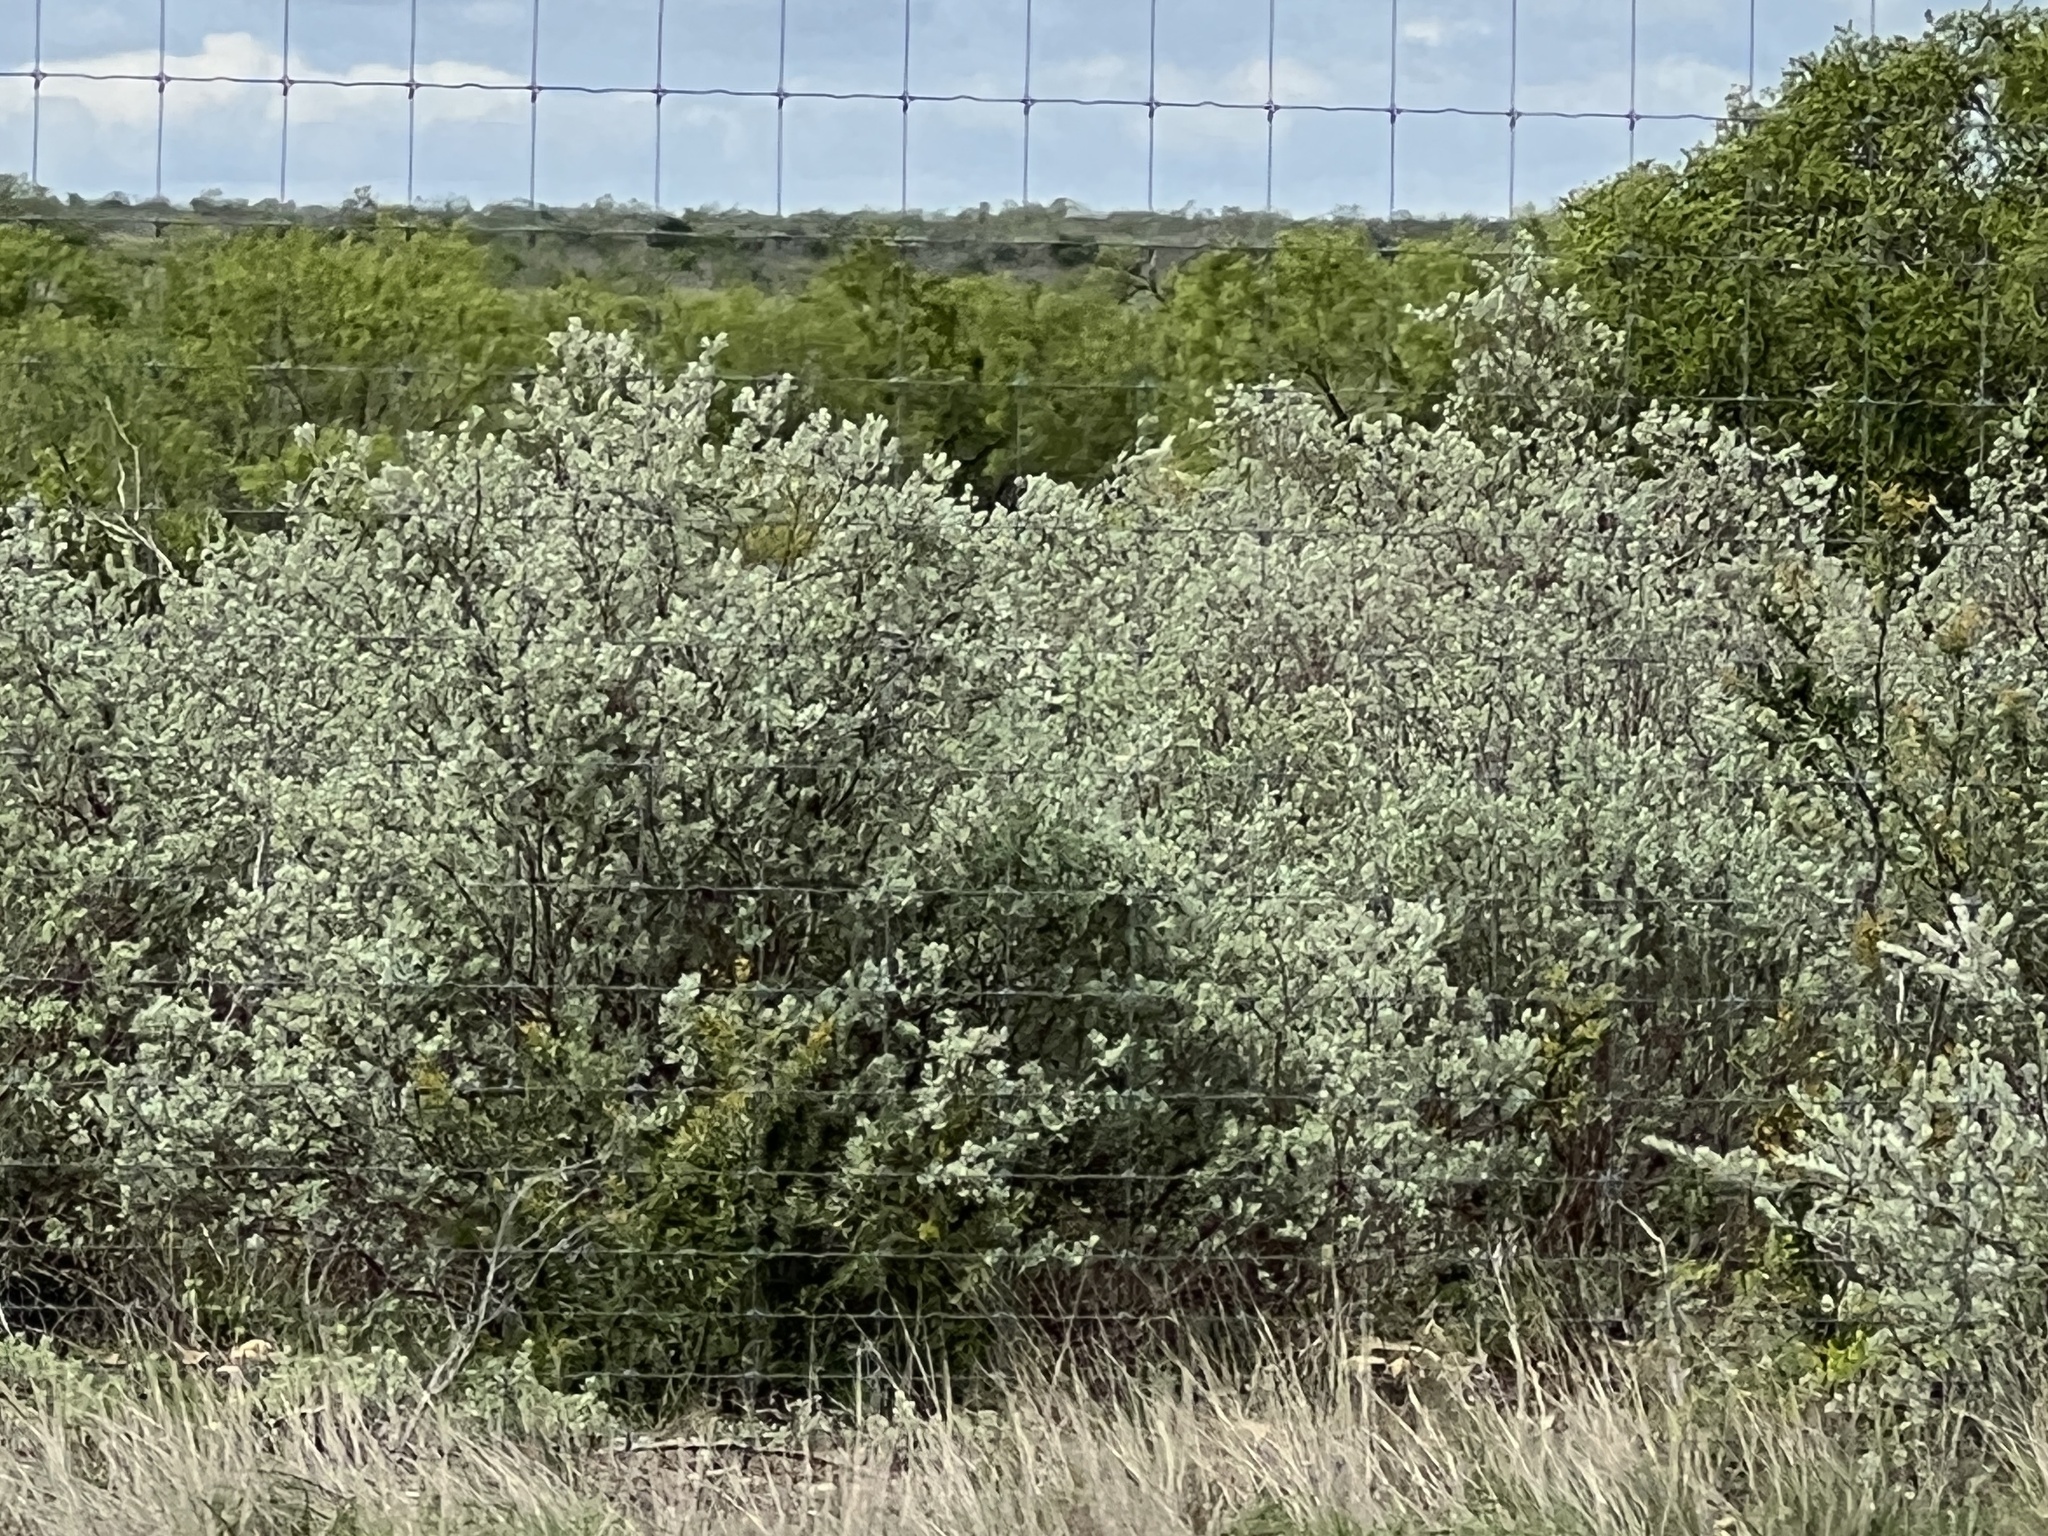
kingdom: Plantae
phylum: Tracheophyta
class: Magnoliopsida
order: Lamiales
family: Scrophulariaceae
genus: Leucophyllum
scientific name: Leucophyllum frutescens
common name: Texas silverleaf
